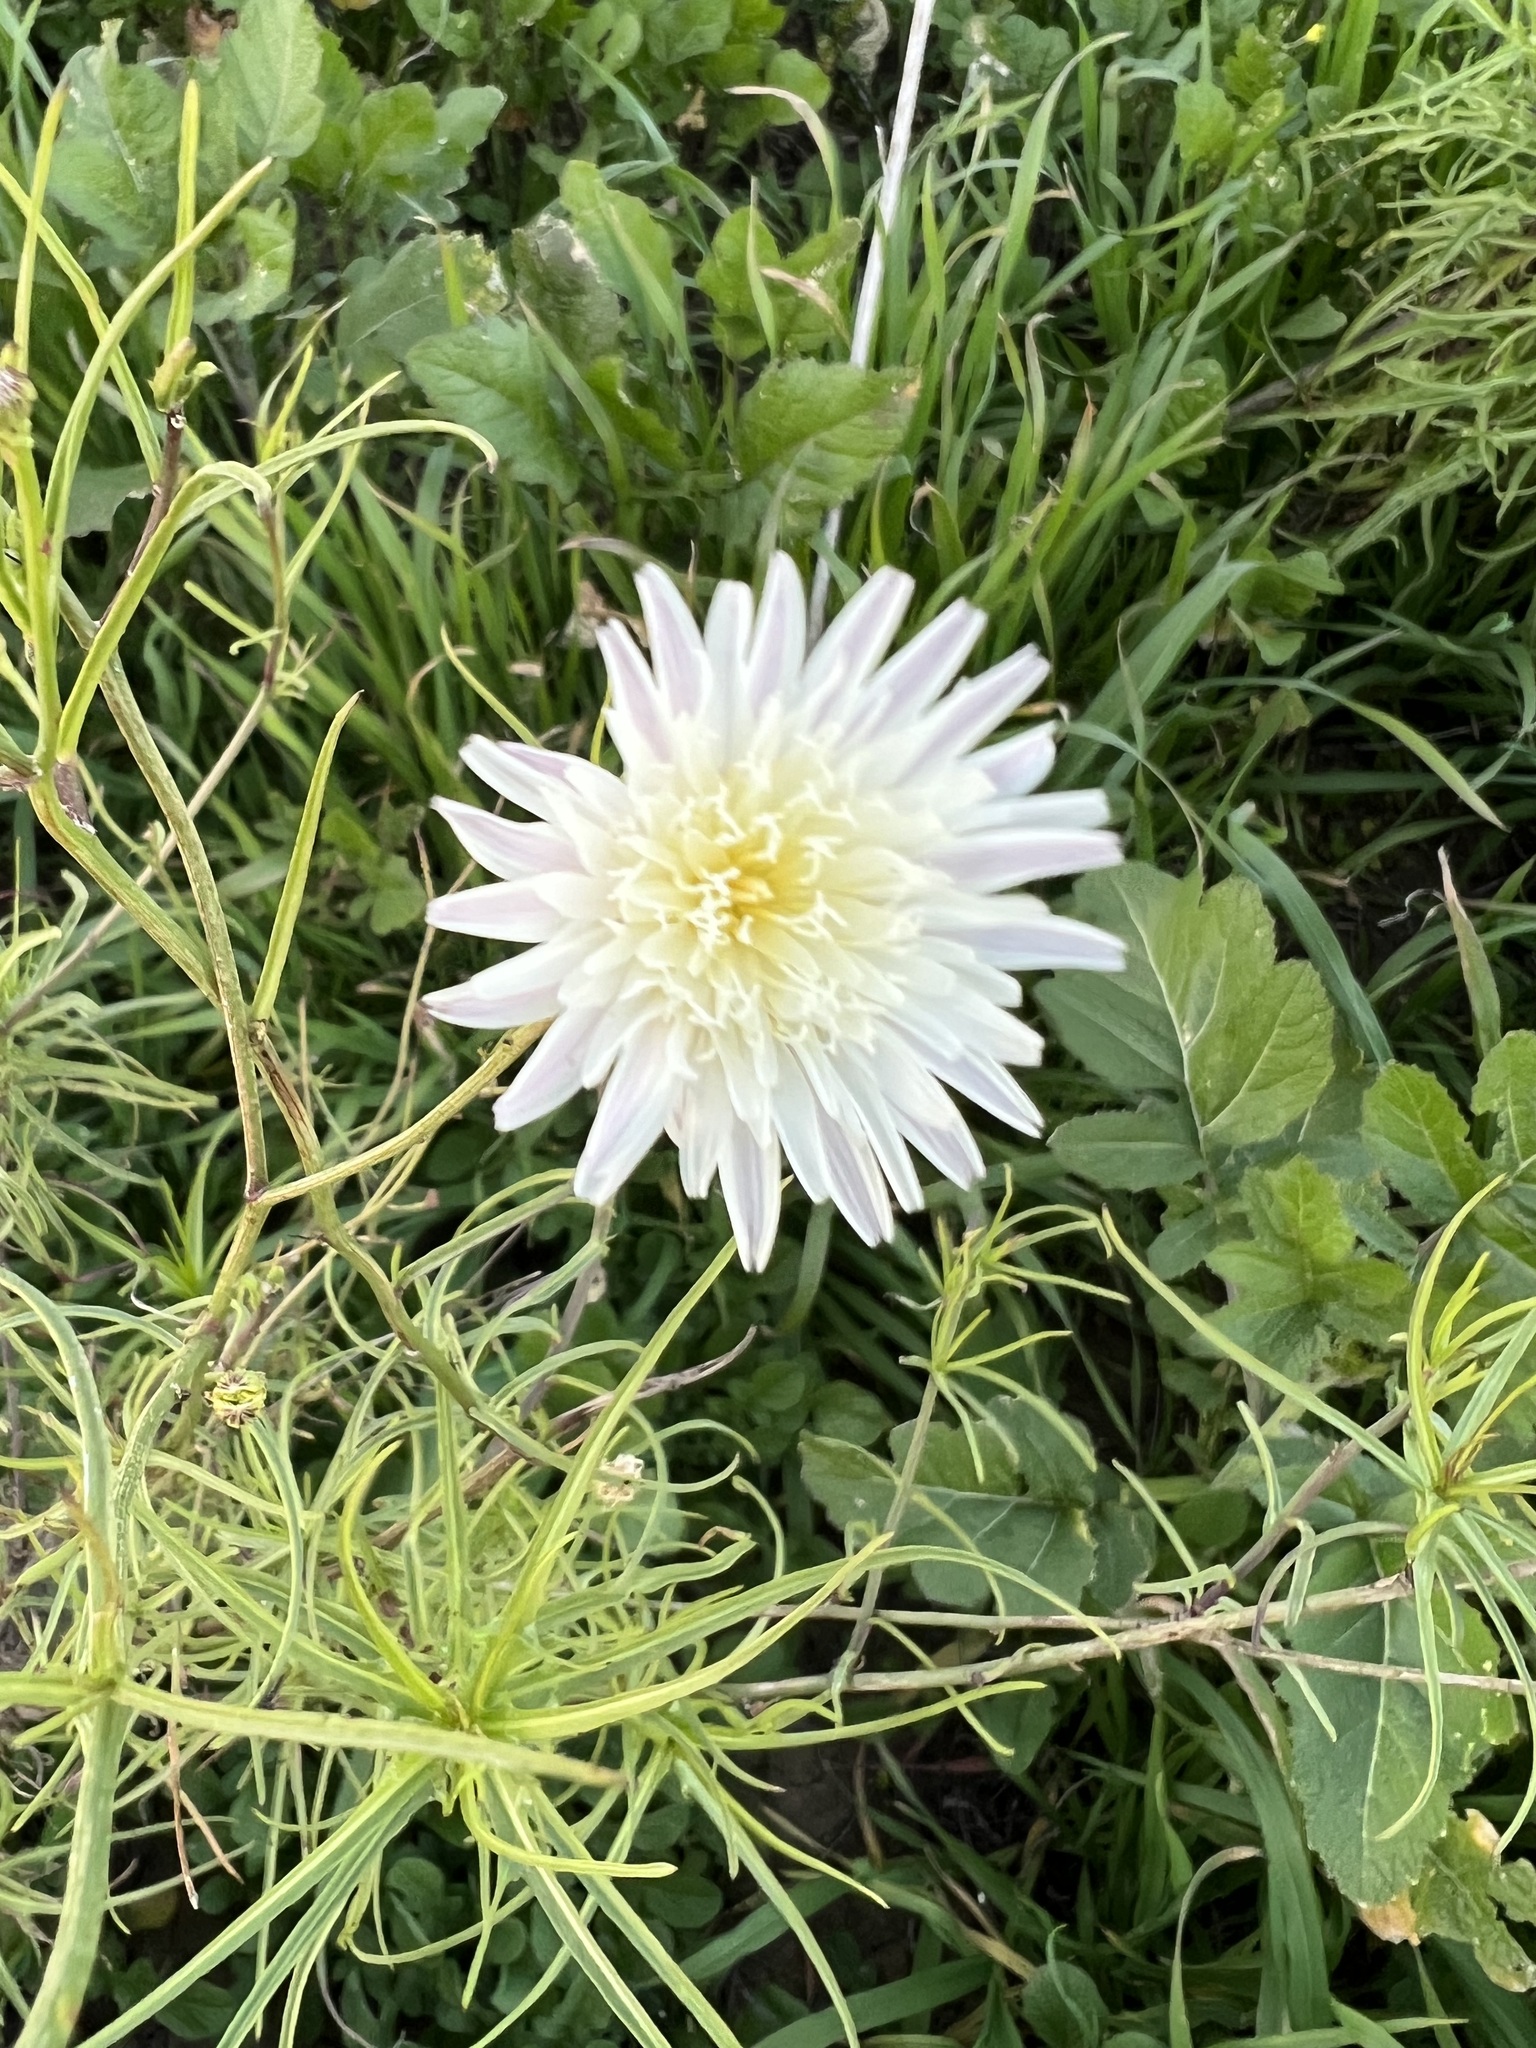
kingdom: Plantae
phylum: Tracheophyta
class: Magnoliopsida
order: Asterales
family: Asteraceae
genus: Malacothrix
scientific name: Malacothrix saxatilis
